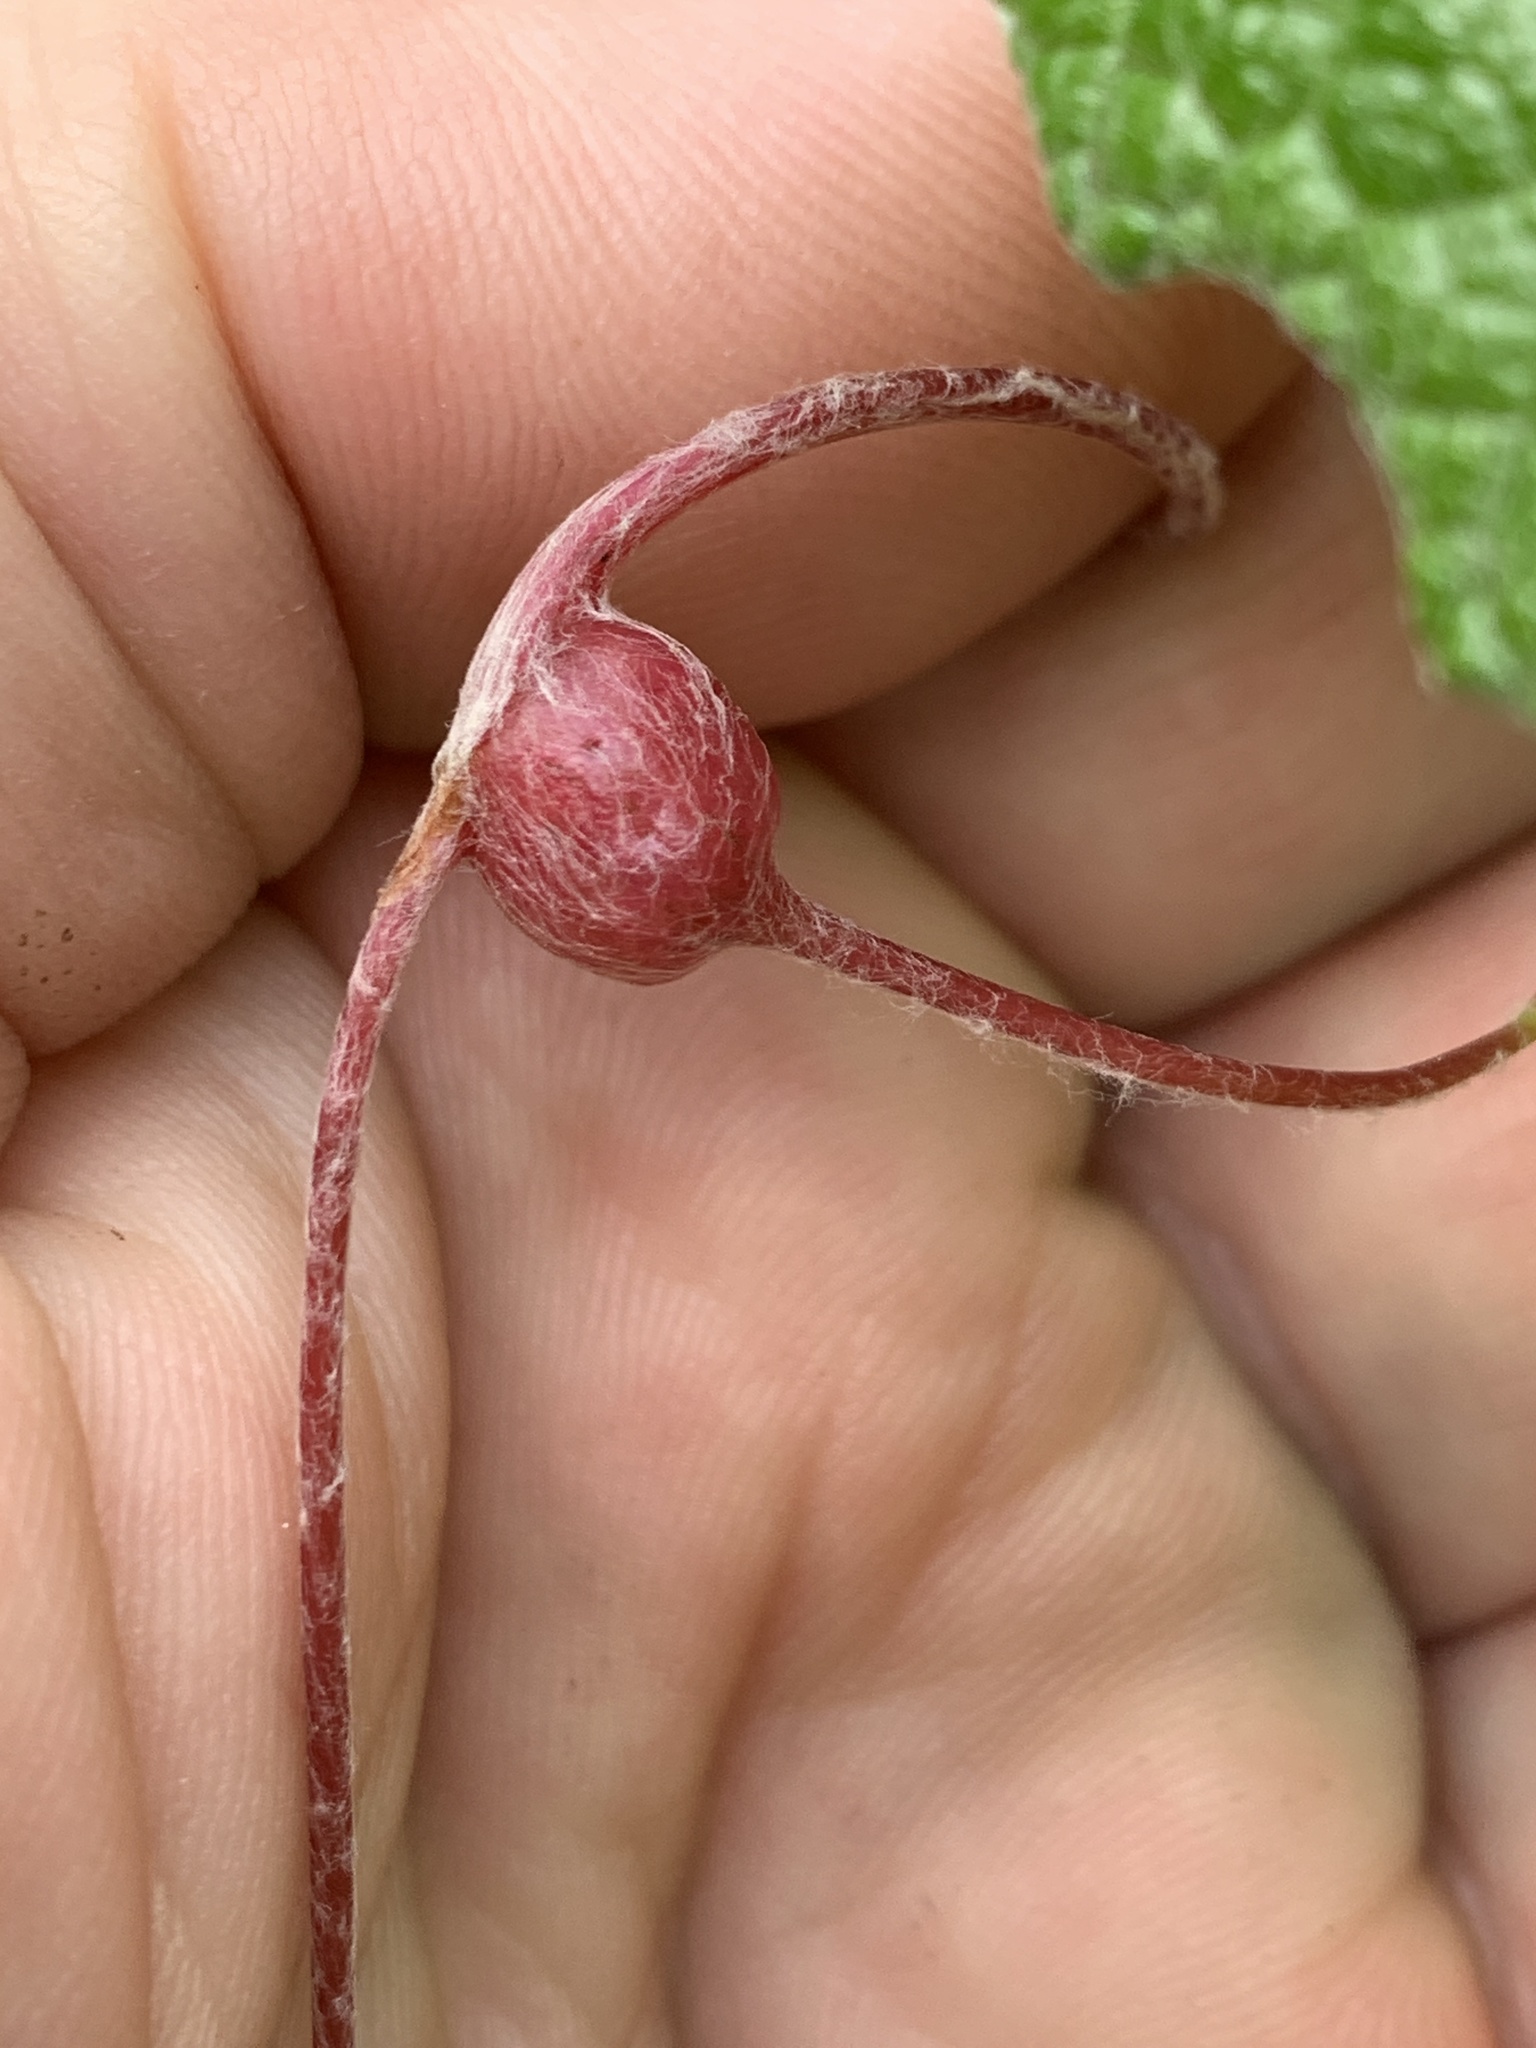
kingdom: Animalia
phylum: Arthropoda
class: Insecta
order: Diptera
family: Cecidomyiidae
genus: Vitisiella
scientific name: Vitisiella brevicauda
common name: Grape tumid gallmaker midge
